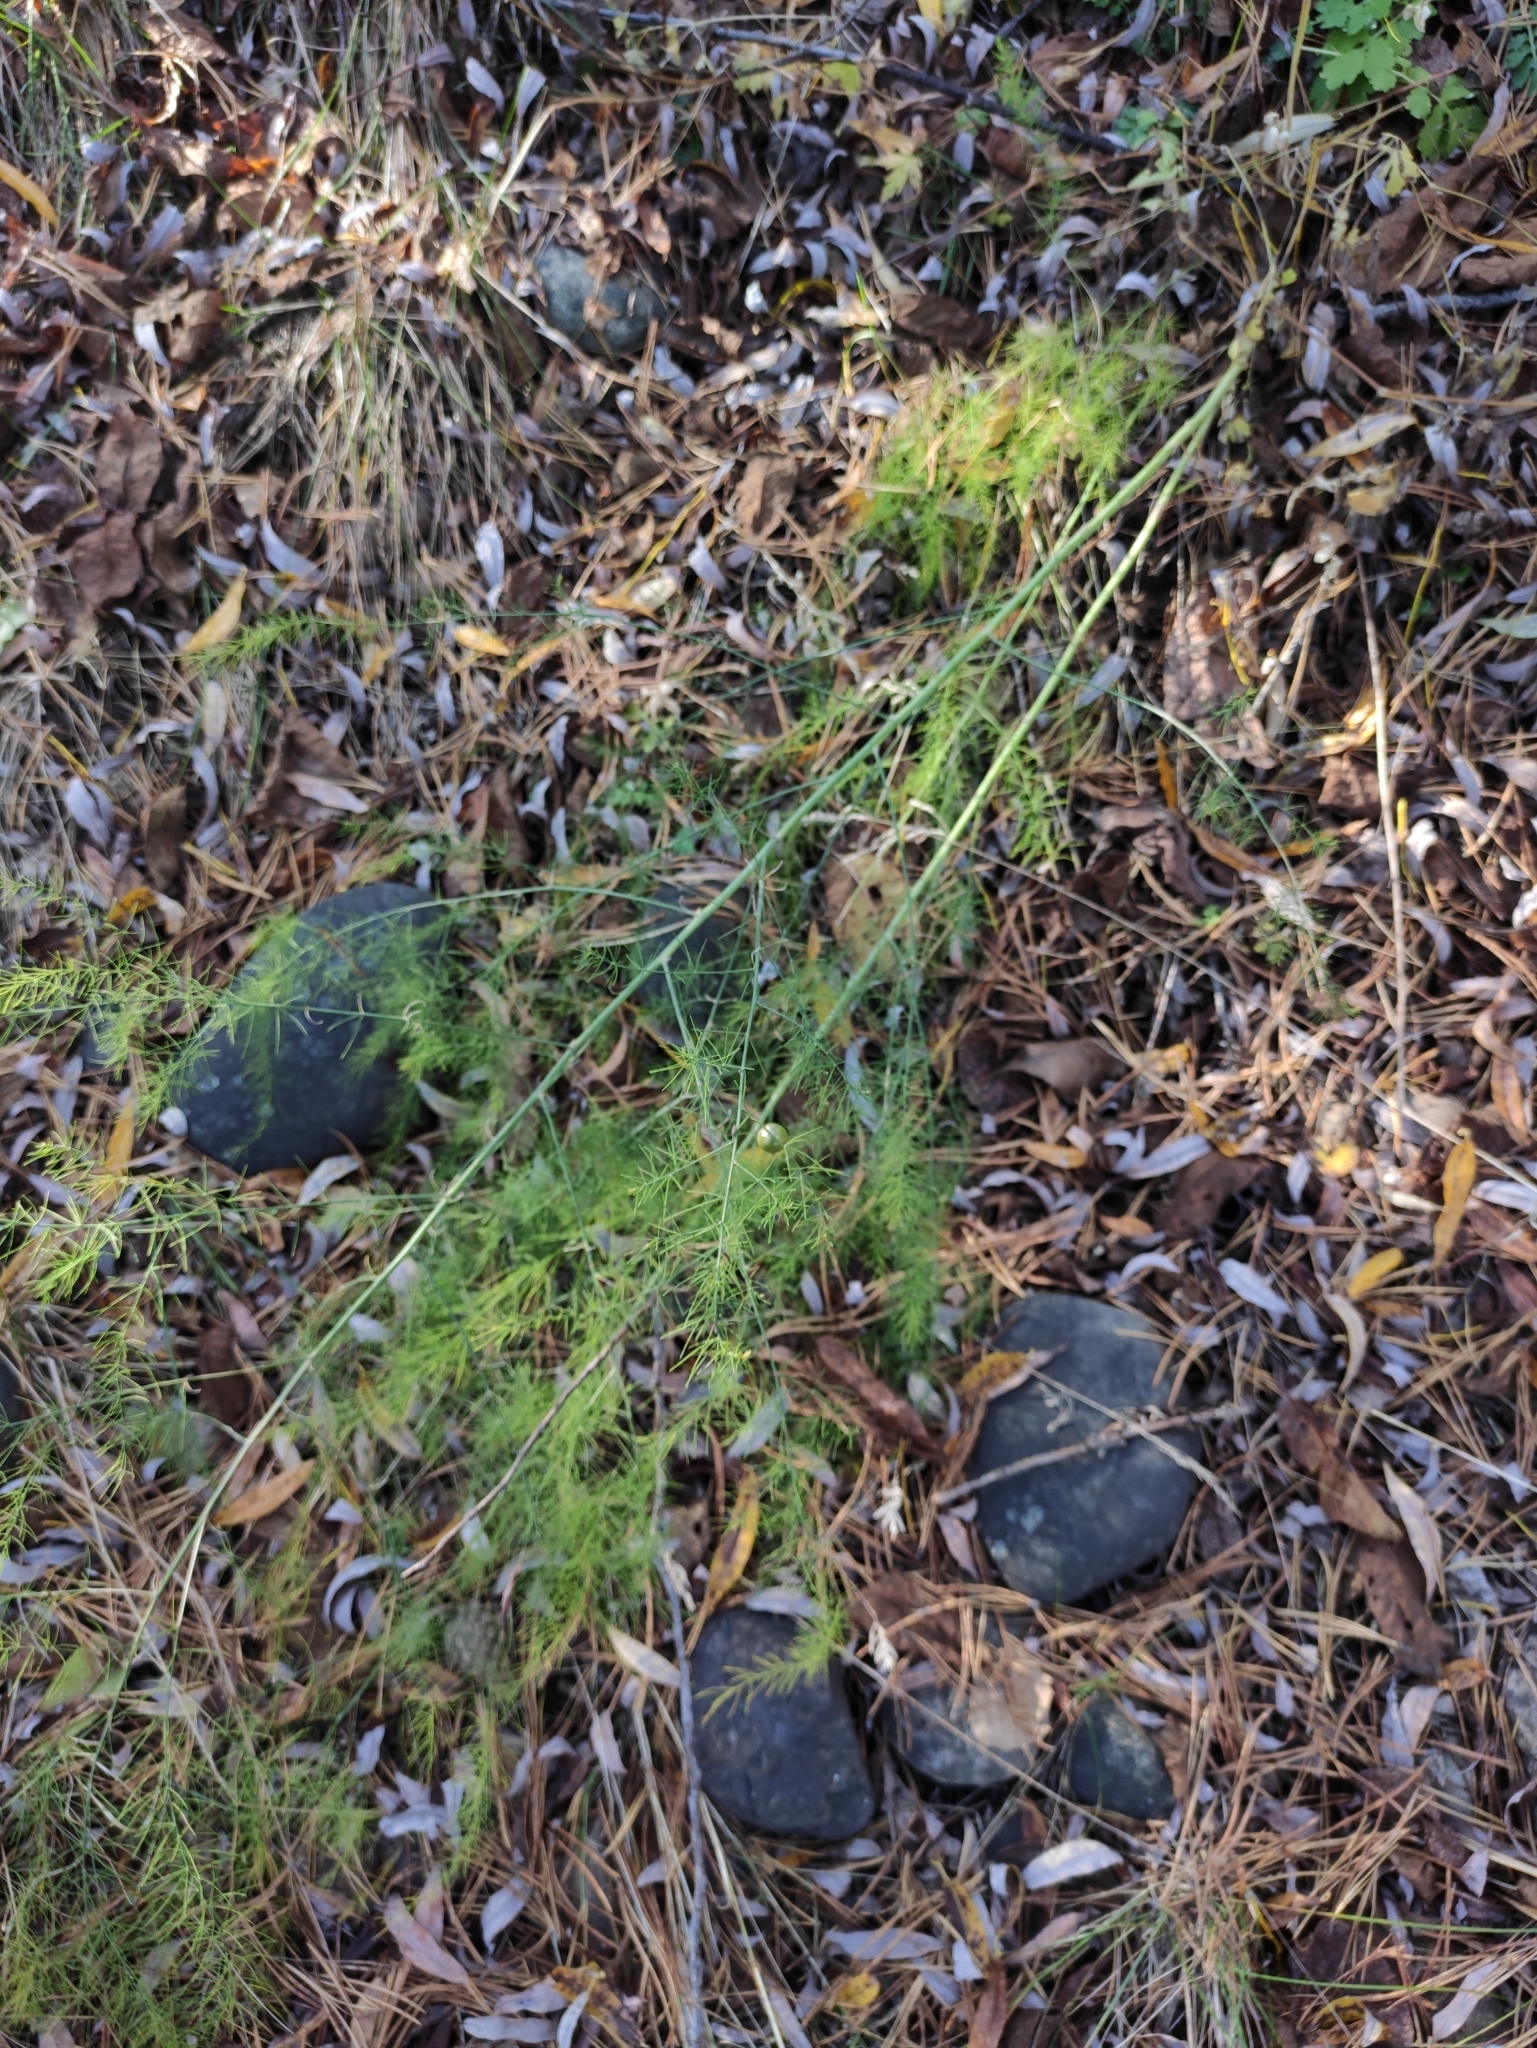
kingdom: Plantae
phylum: Tracheophyta
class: Liliopsida
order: Asparagales
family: Asparagaceae
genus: Asparagus
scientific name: Asparagus officinalis
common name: Garden asparagus
